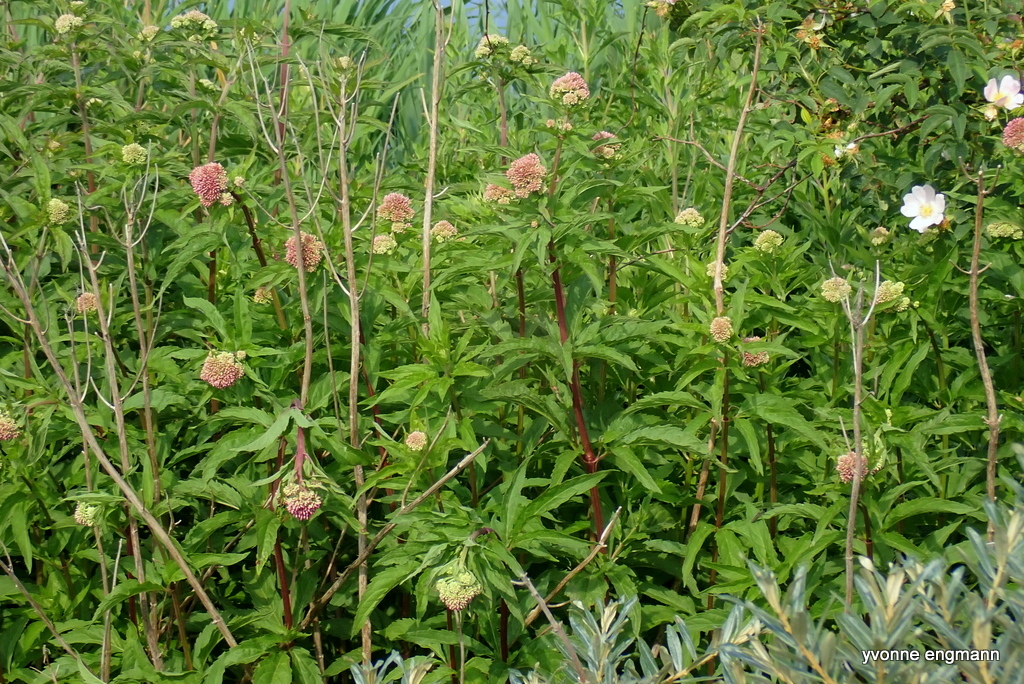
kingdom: Plantae
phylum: Tracheophyta
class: Magnoliopsida
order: Asterales
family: Asteraceae
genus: Eupatorium
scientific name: Eupatorium cannabinum
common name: Hemp-agrimony
